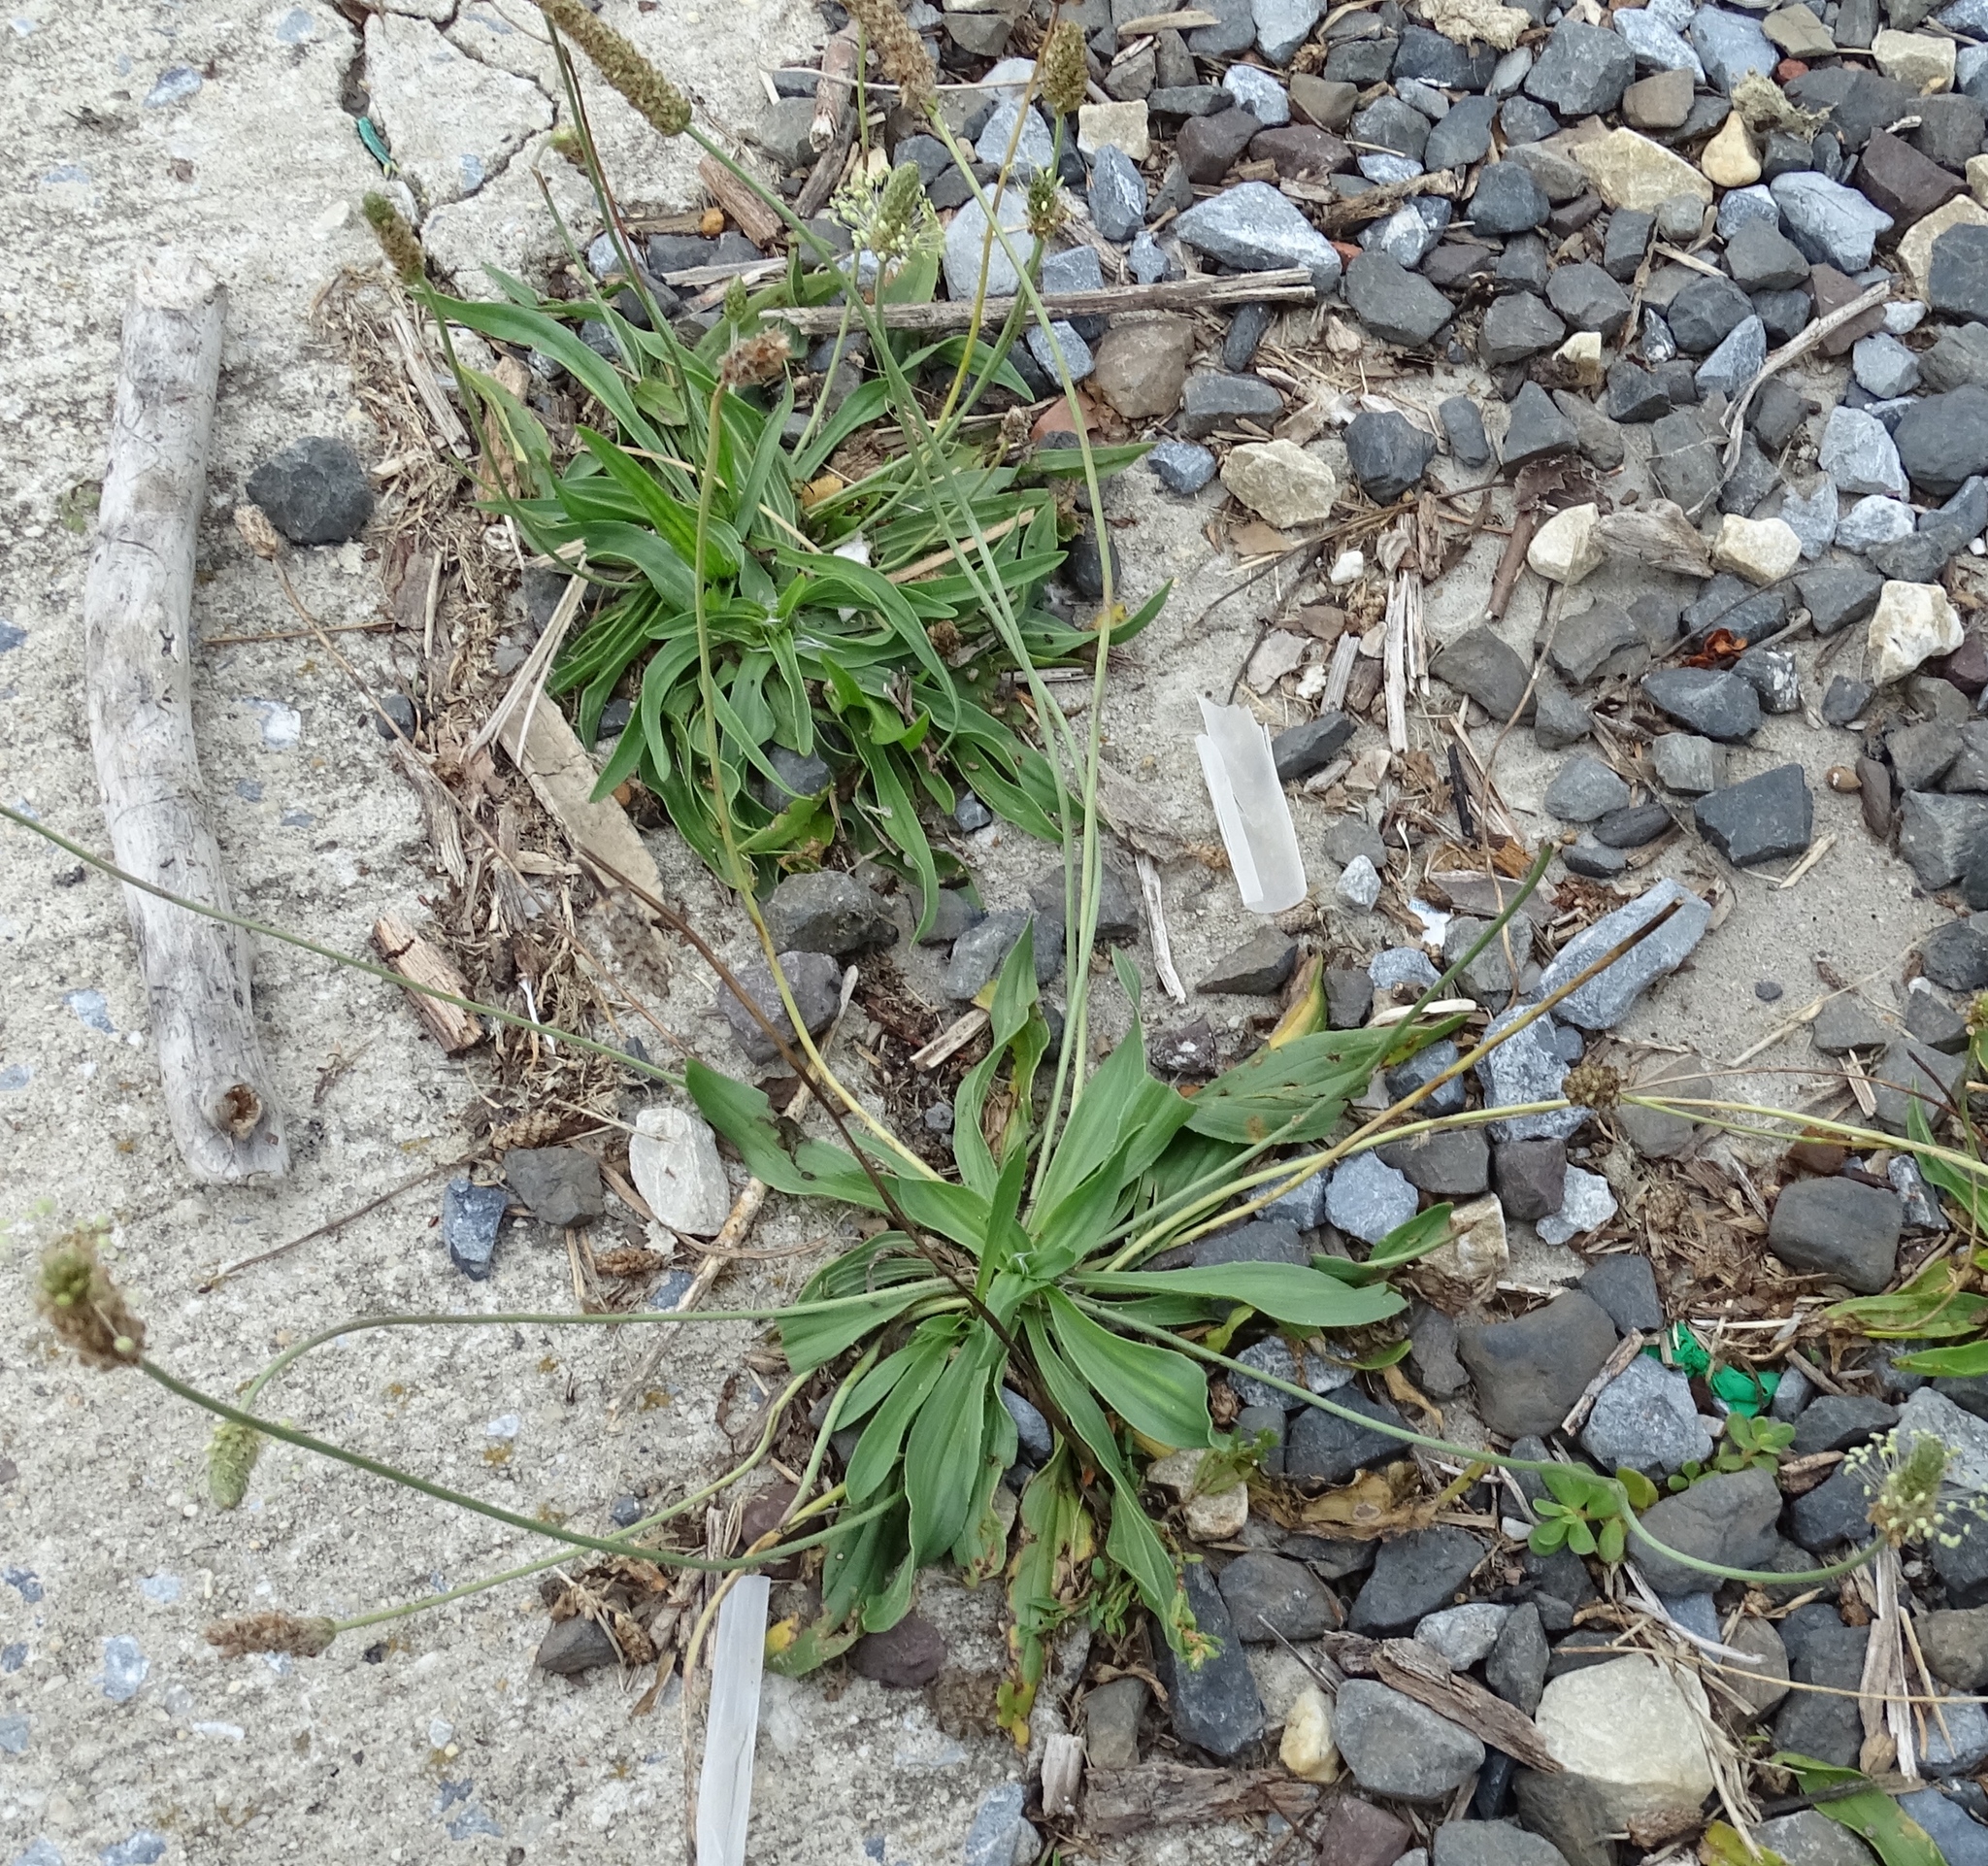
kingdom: Plantae
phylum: Tracheophyta
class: Magnoliopsida
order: Lamiales
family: Plantaginaceae
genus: Plantago
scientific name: Plantago lanceolata
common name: Ribwort plantain
